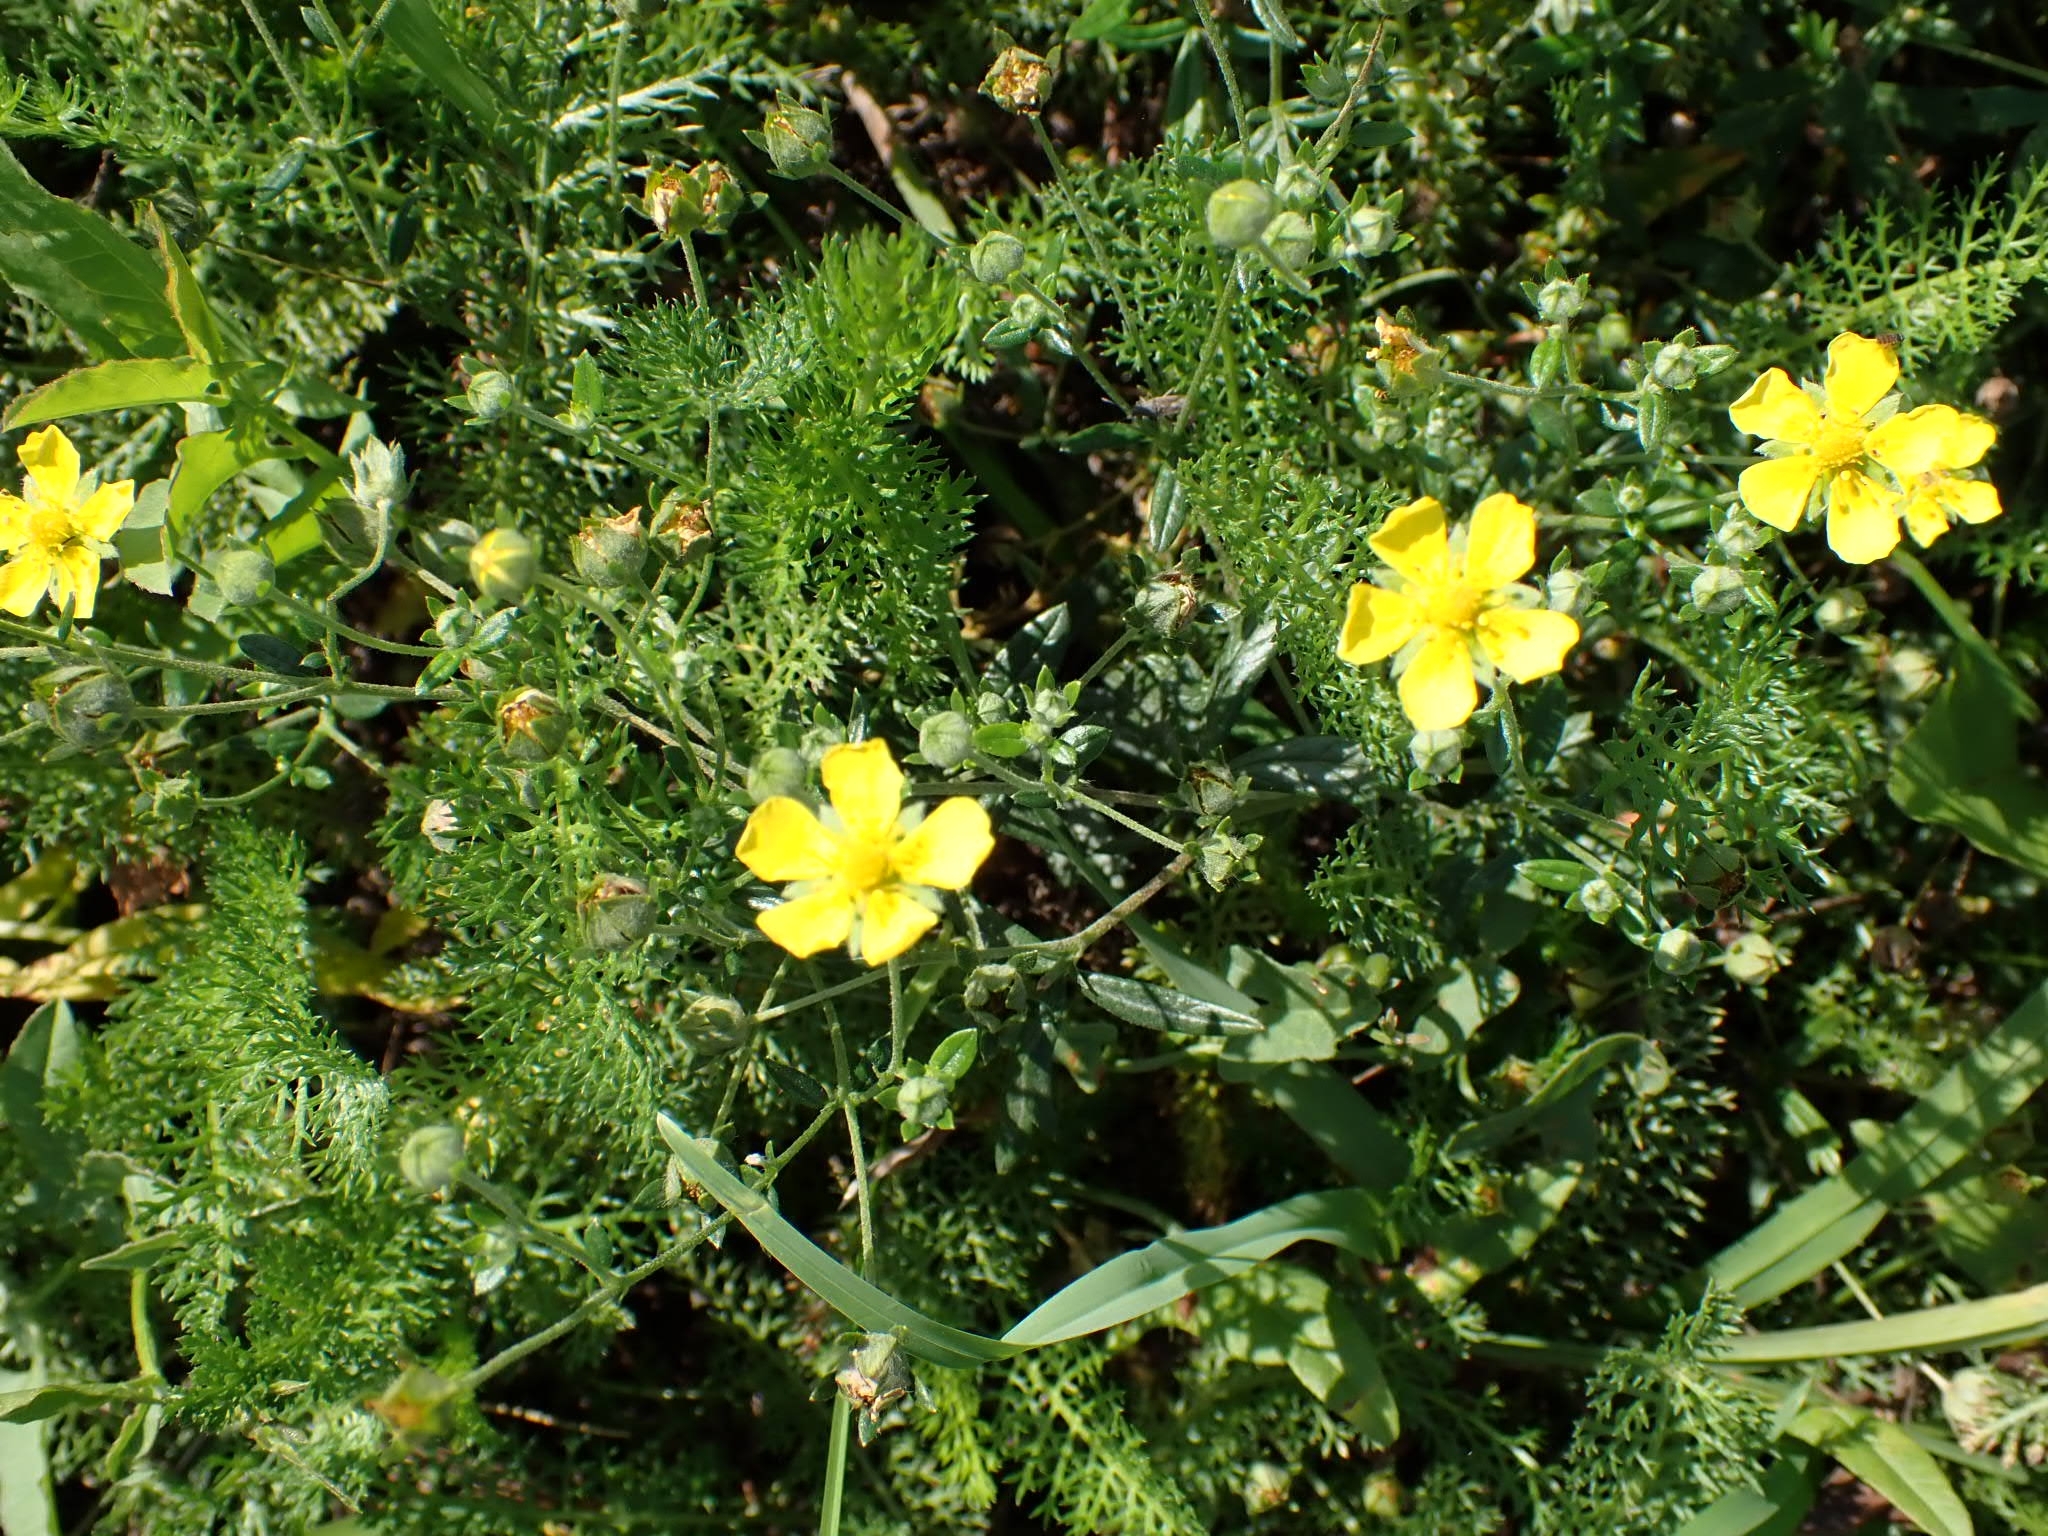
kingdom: Plantae
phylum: Tracheophyta
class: Magnoliopsida
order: Rosales
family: Rosaceae
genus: Potentilla
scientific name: Potentilla argentea
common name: Hoary cinquefoil
